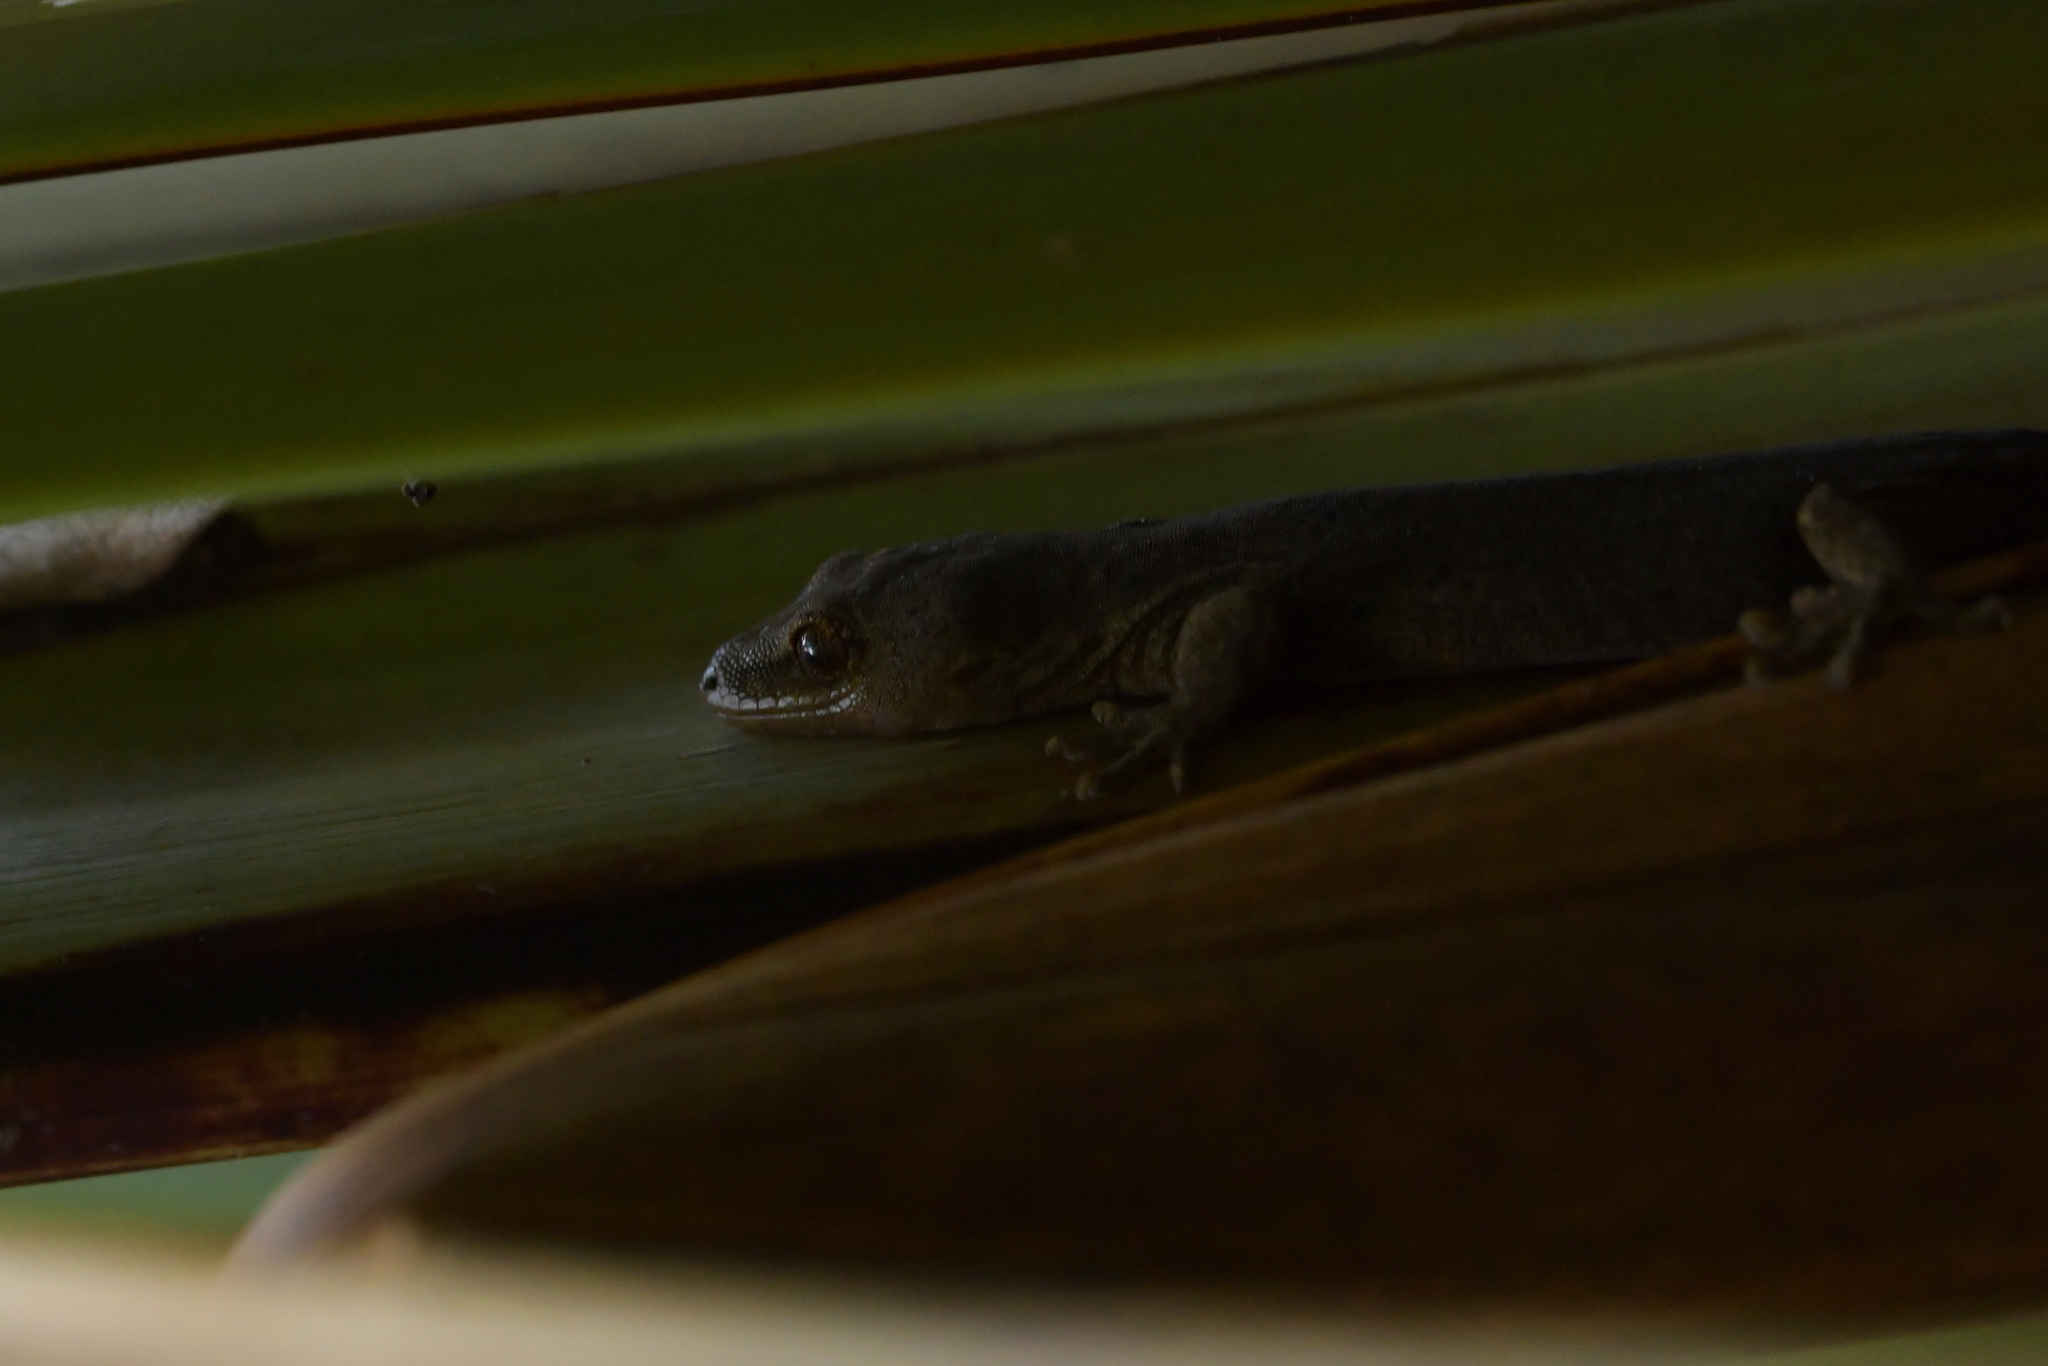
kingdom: Animalia
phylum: Chordata
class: Squamata
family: Diplodactylidae
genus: Woodworthia
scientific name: Woodworthia maculata
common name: Raukawa gecko
